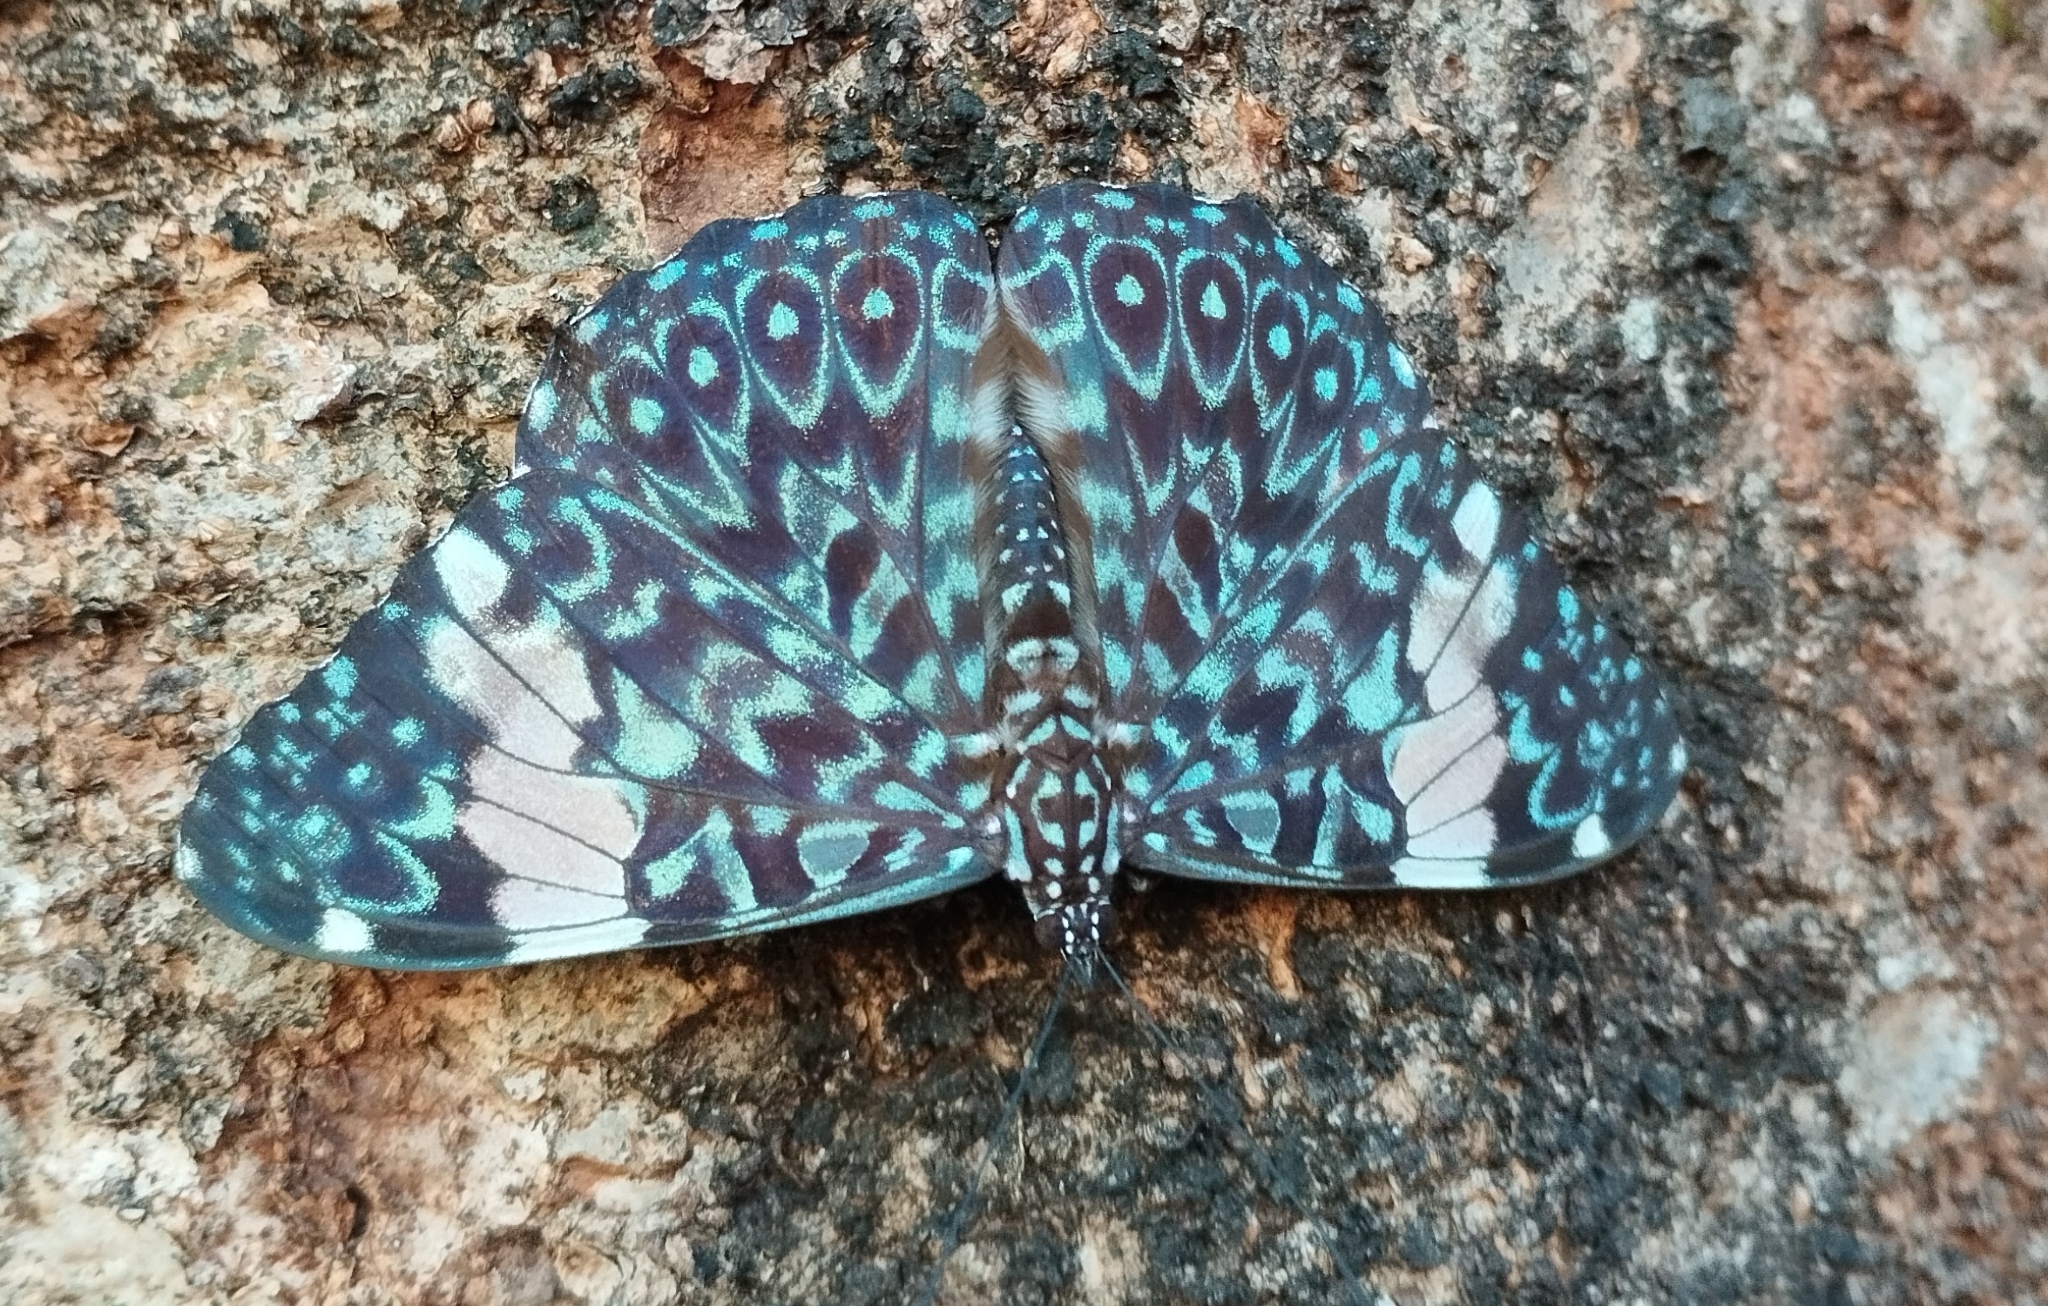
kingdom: Animalia
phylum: Arthropoda
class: Insecta
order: Lepidoptera
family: Nymphalidae
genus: Hamadryas
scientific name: Hamadryas amphinome
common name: Red cracker
